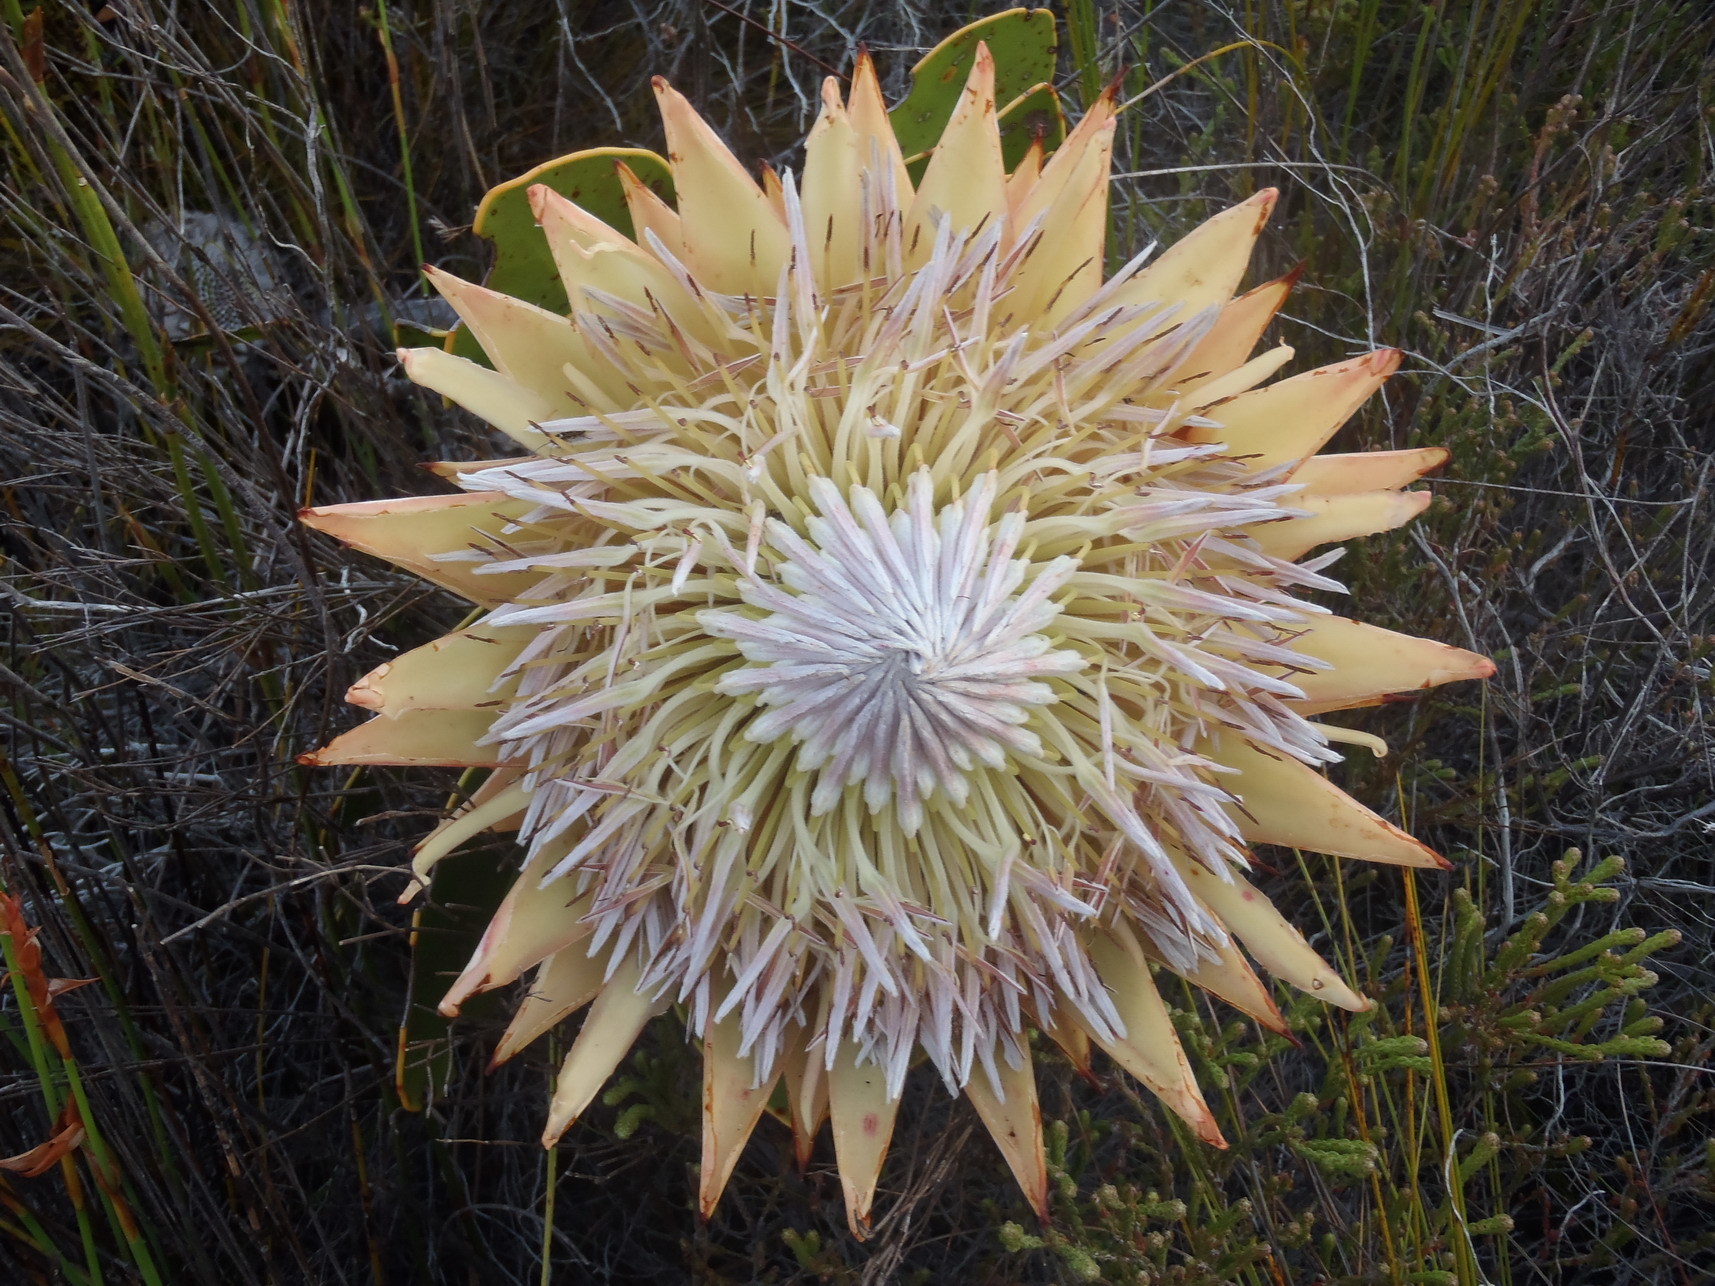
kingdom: Plantae
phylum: Tracheophyta
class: Magnoliopsida
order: Proteales
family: Proteaceae
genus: Protea
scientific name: Protea cynaroides
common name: King protea
